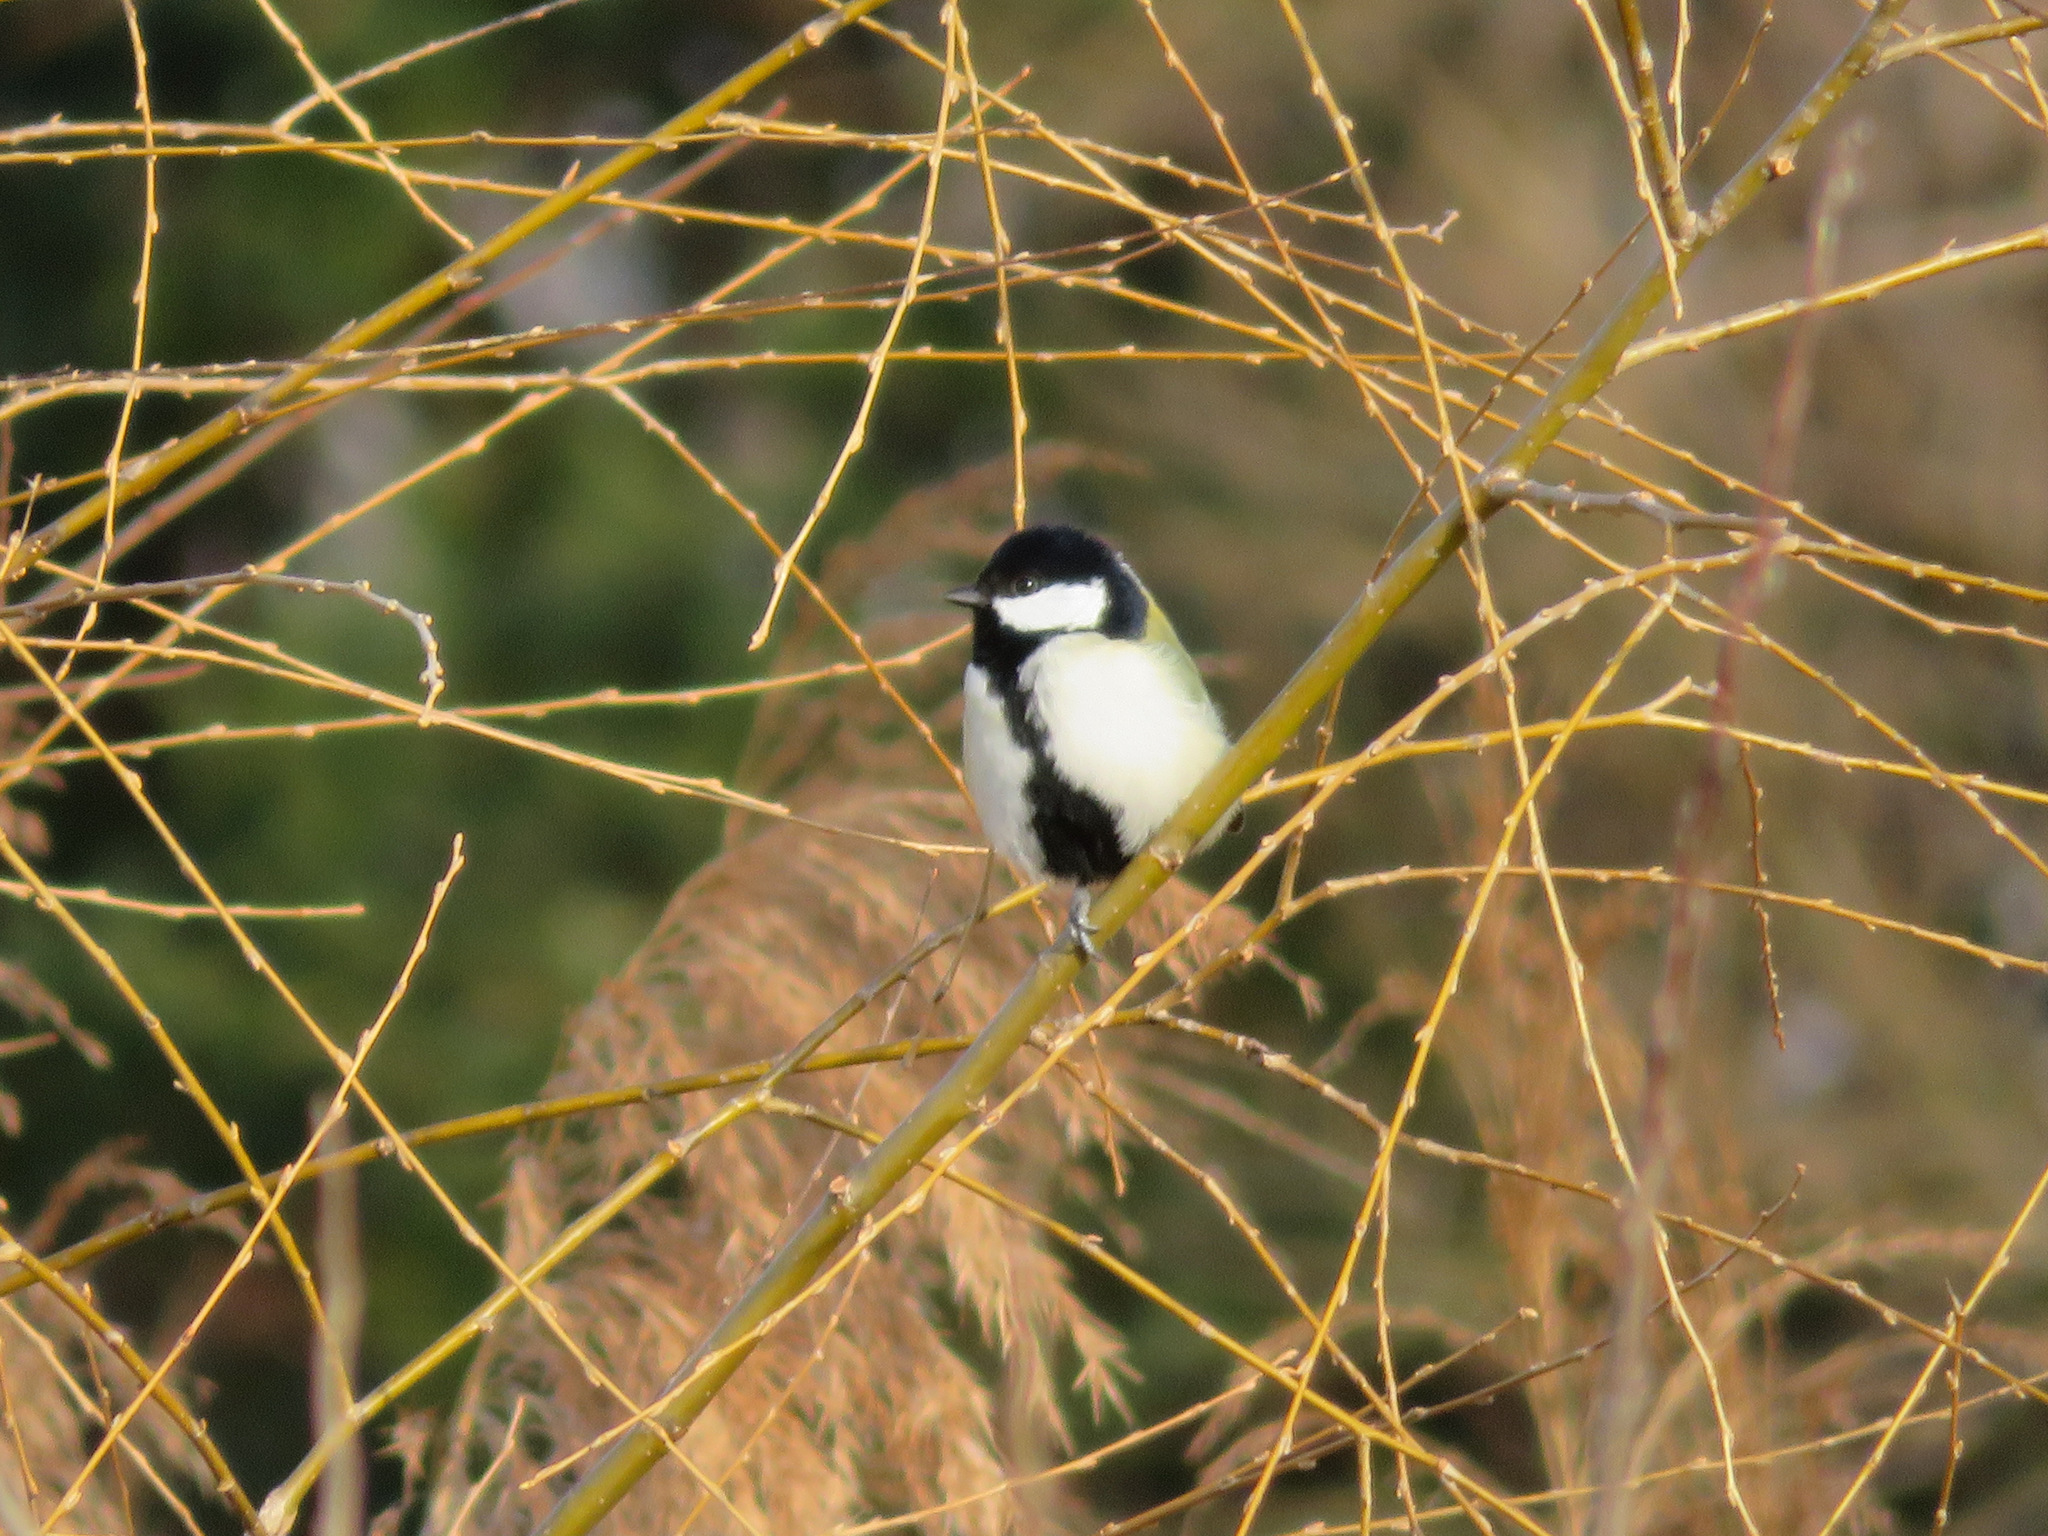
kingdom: Animalia
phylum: Chordata
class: Aves
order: Passeriformes
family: Paridae
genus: Parus
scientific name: Parus minor
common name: Japanese tit
